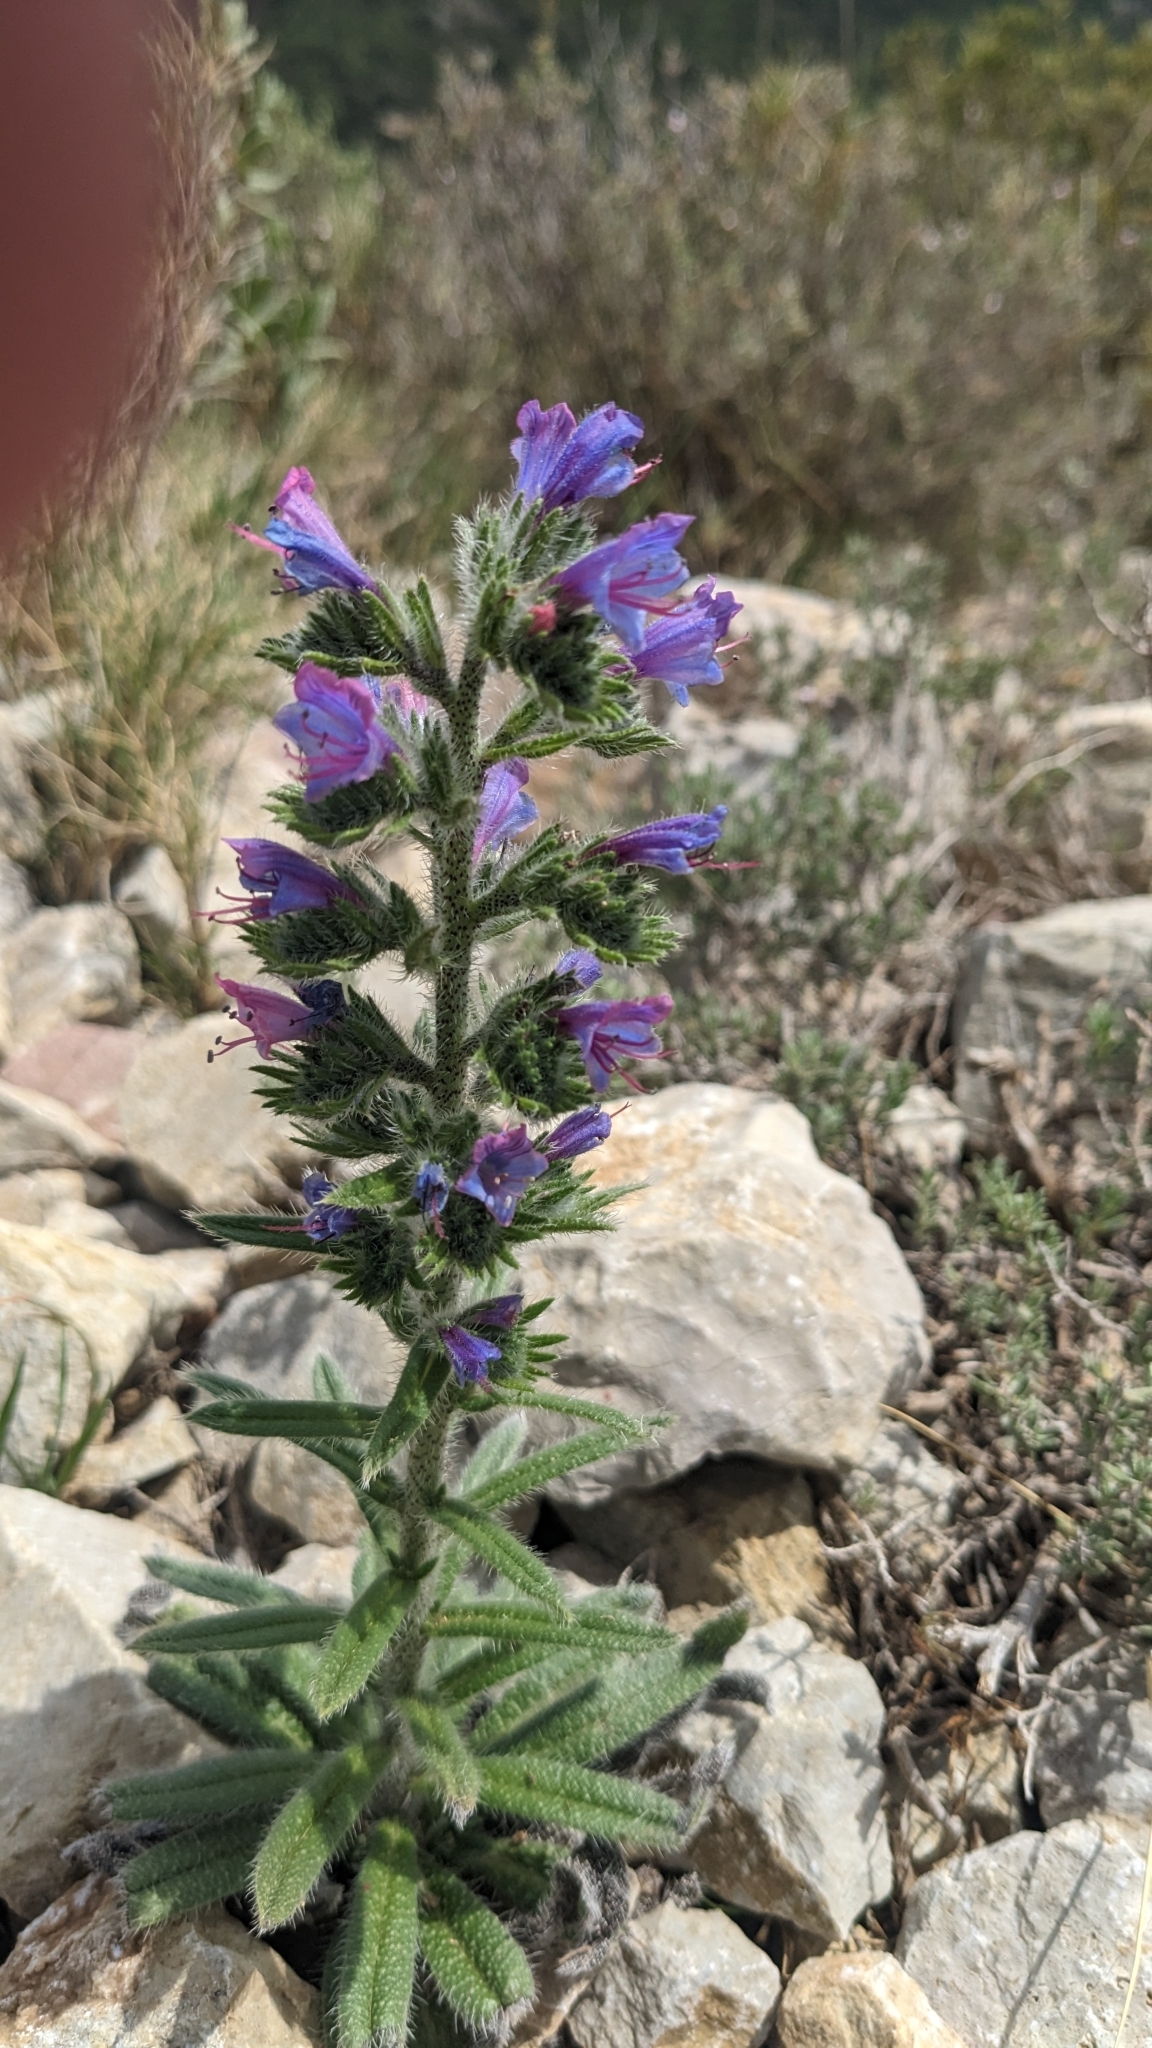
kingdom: Plantae
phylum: Tracheophyta
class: Magnoliopsida
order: Boraginales
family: Boraginaceae
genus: Echium
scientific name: Echium vulgare
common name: Common viper's bugloss
